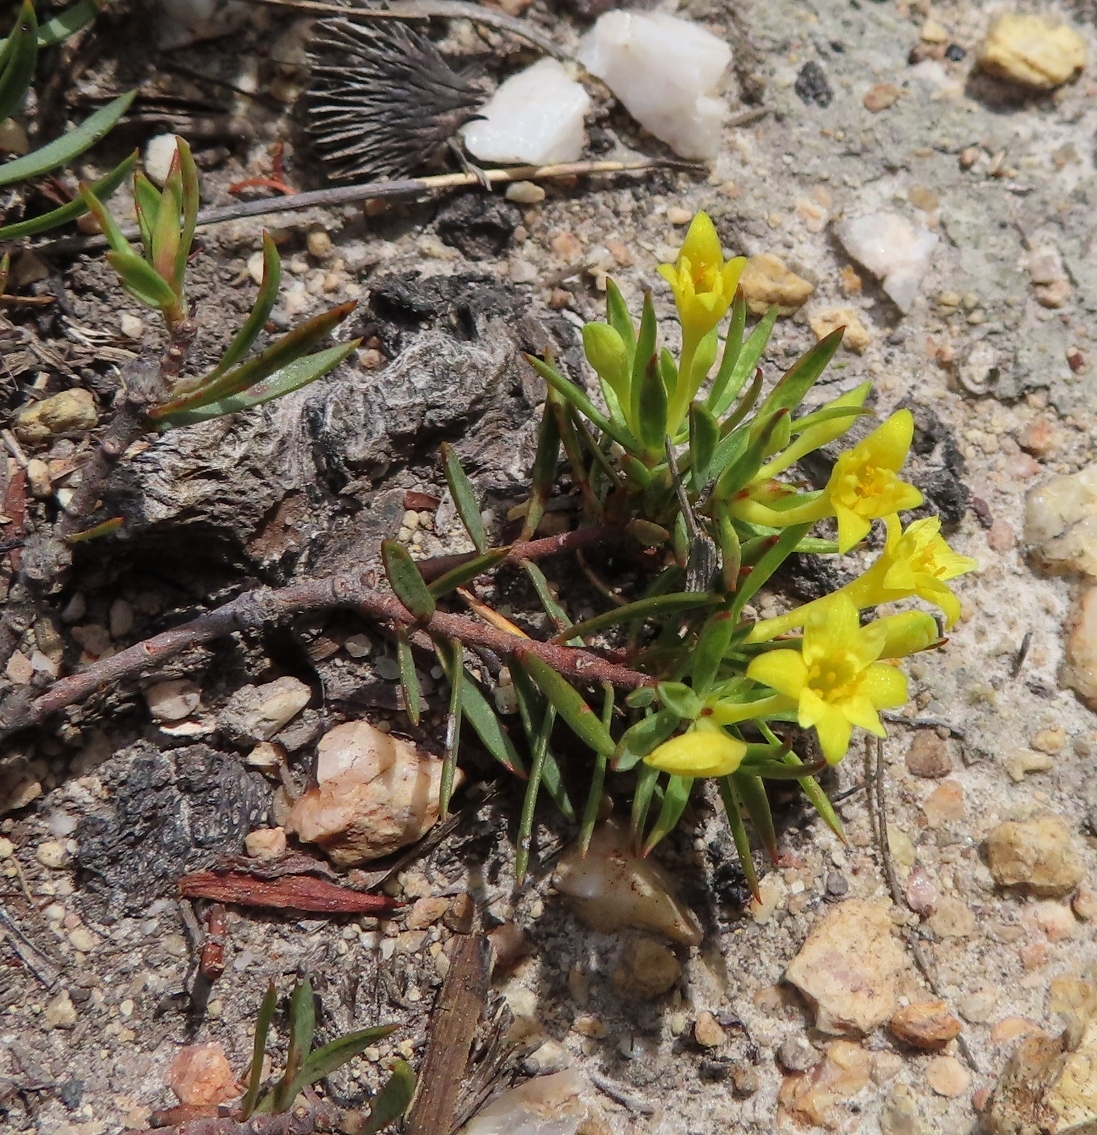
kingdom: Plantae
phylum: Tracheophyta
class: Magnoliopsida
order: Malvales
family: Thymelaeaceae
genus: Gnidia
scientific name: Gnidia simplex
